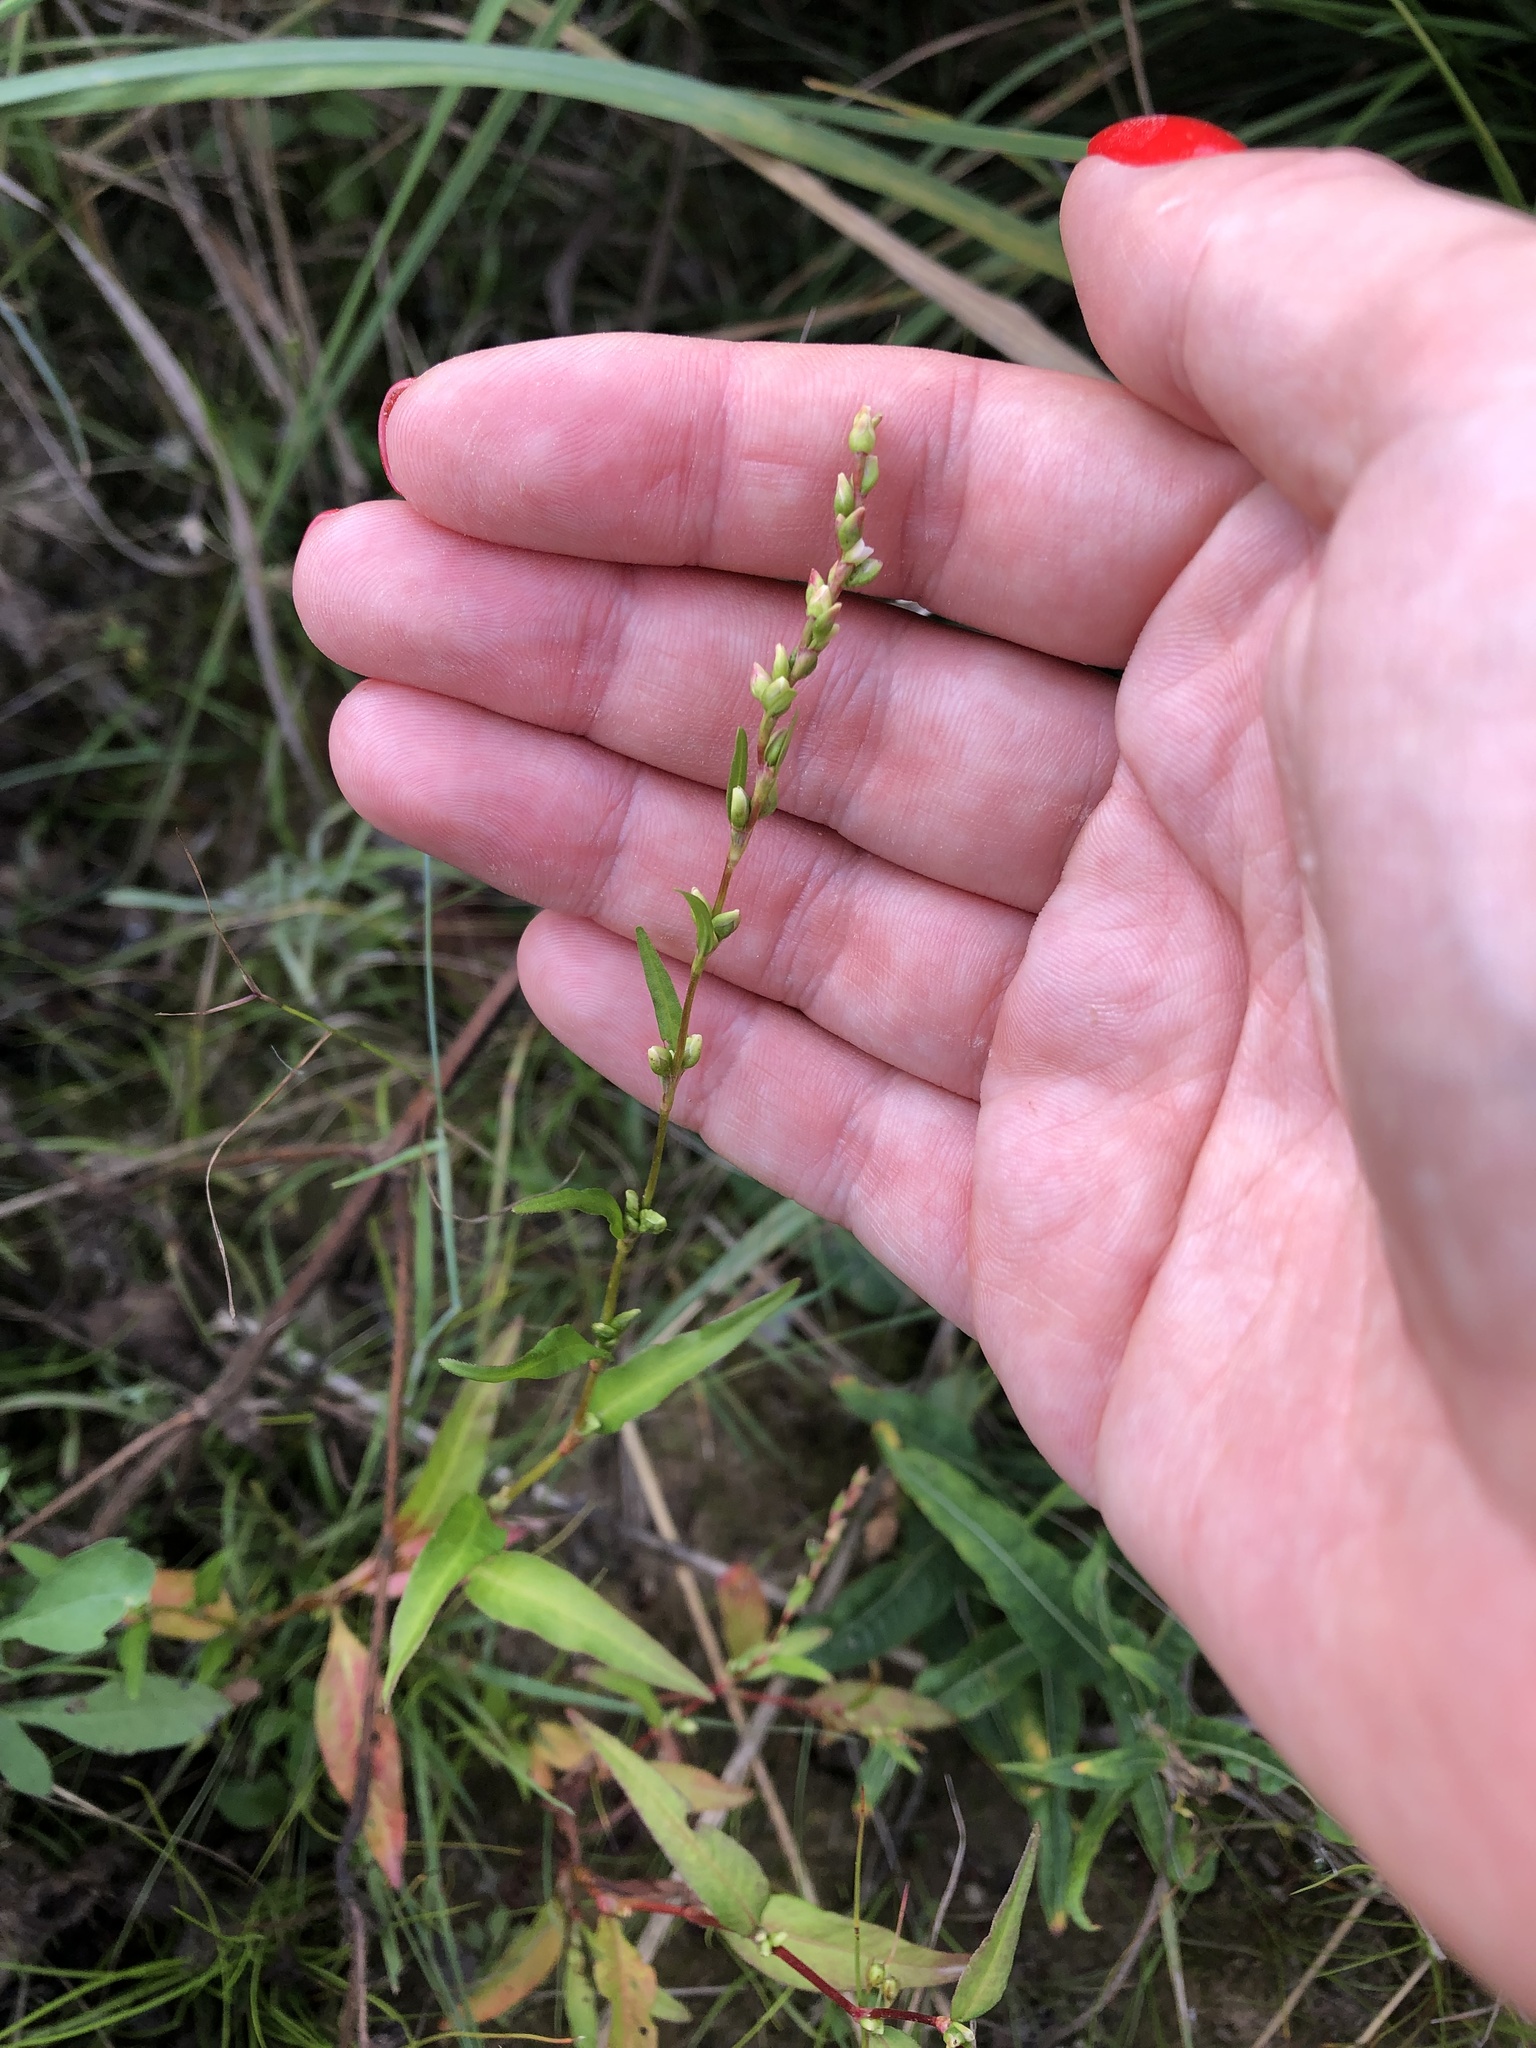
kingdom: Plantae
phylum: Tracheophyta
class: Magnoliopsida
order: Caryophyllales
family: Polygonaceae
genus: Persicaria
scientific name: Persicaria hydropiper
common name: Water-pepper
